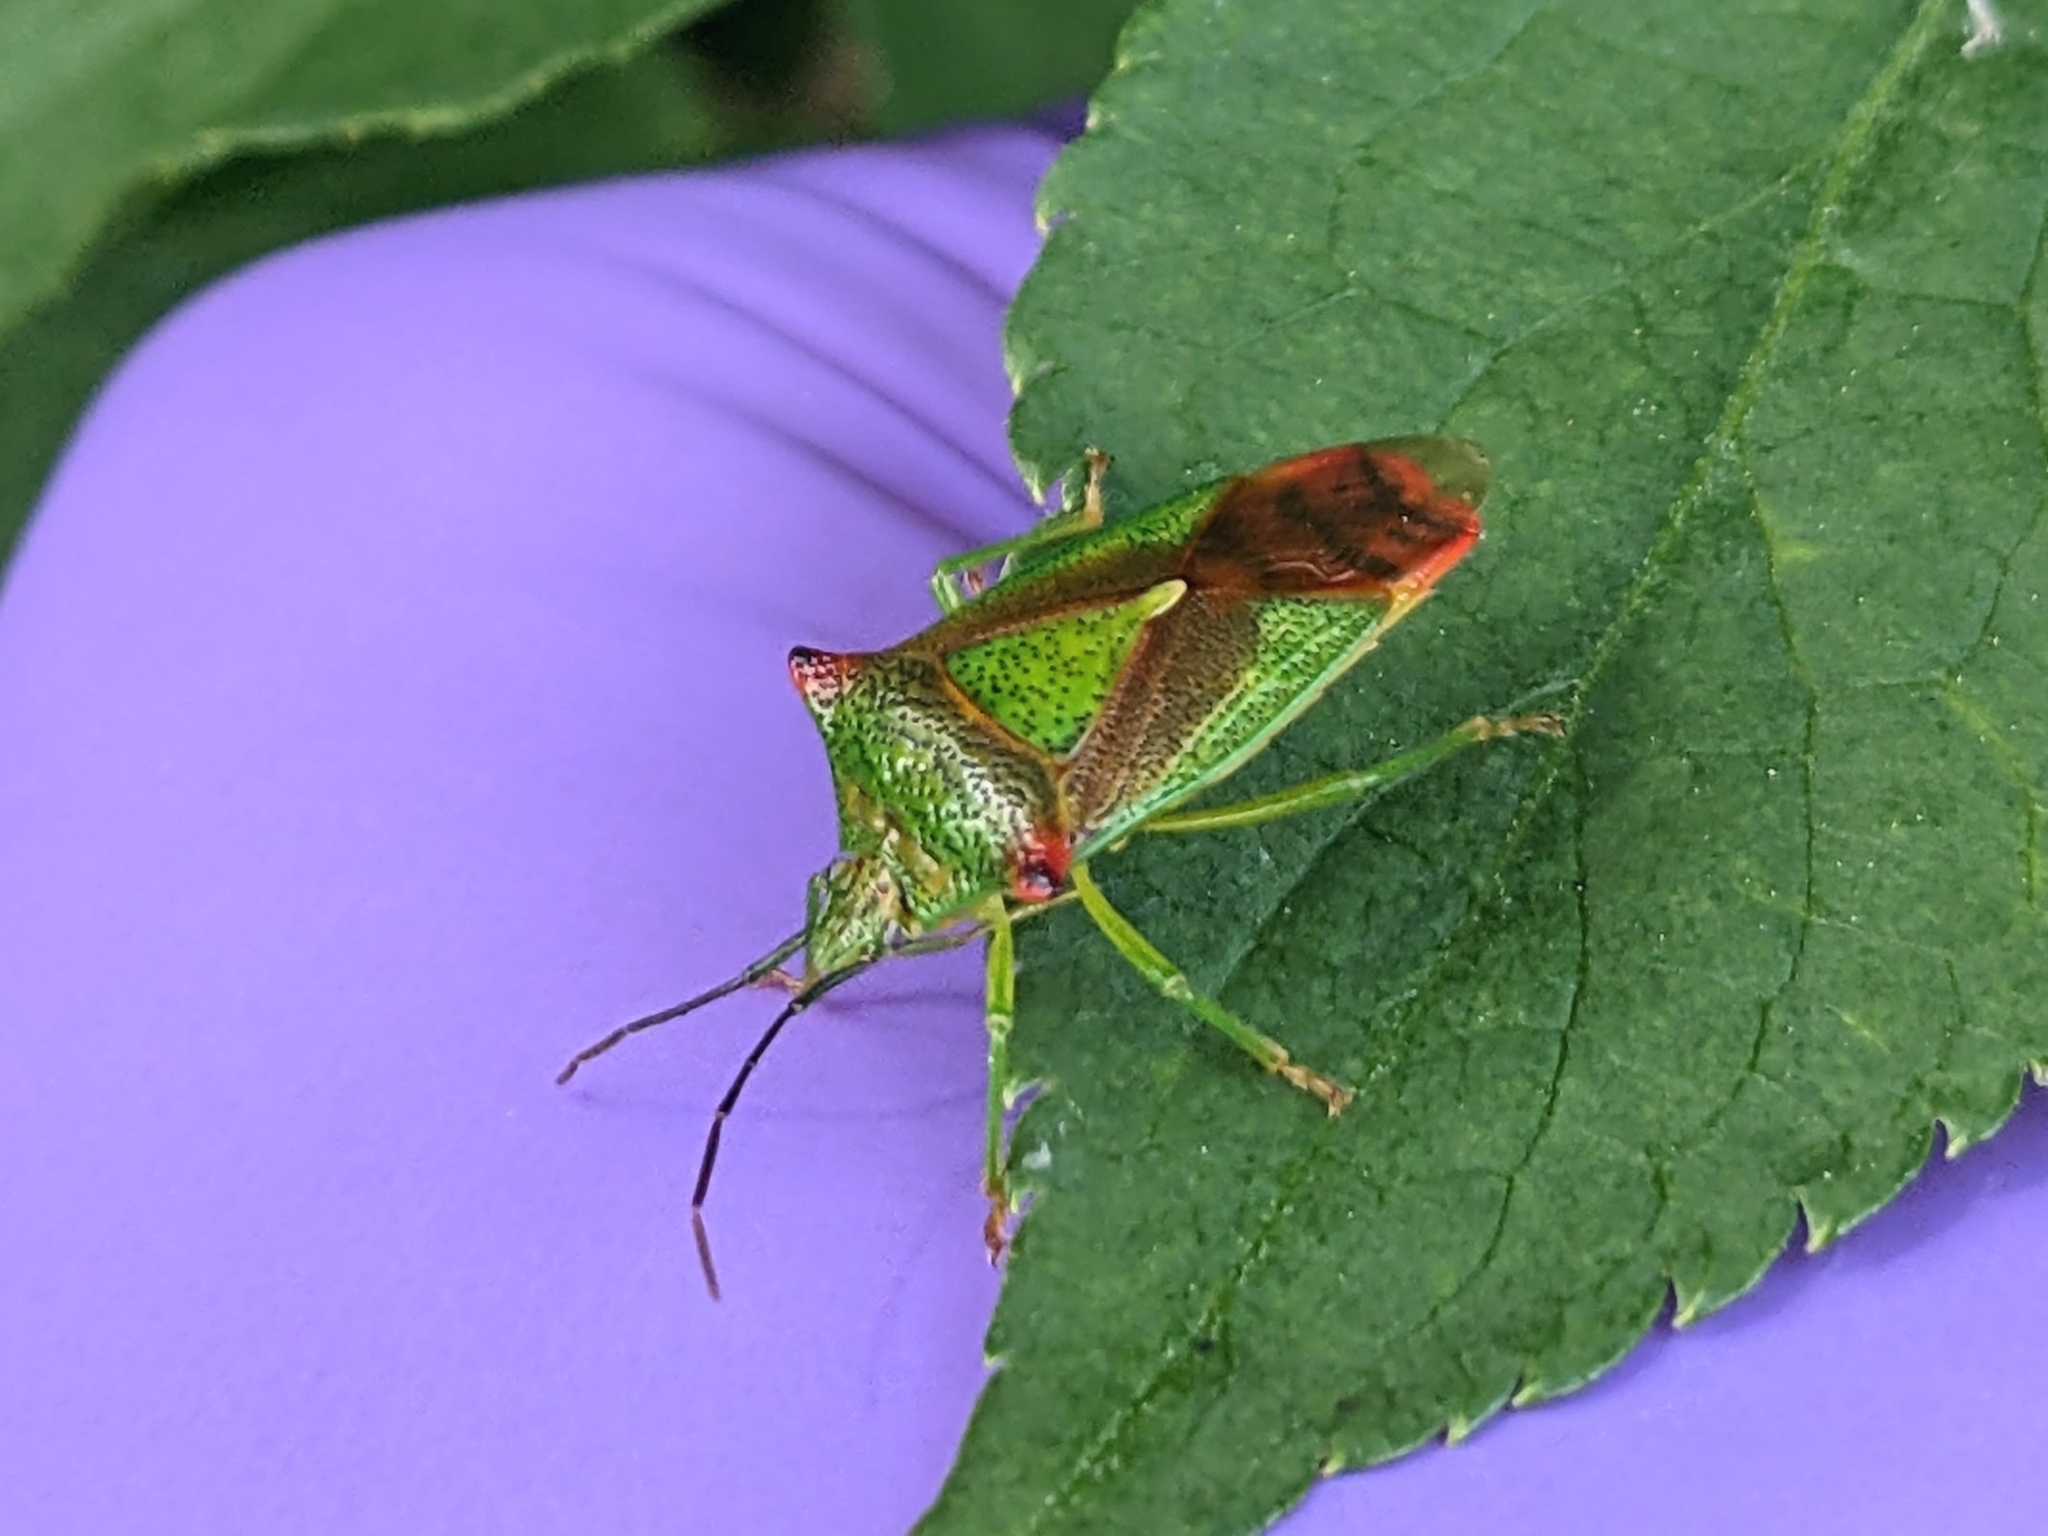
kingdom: Animalia
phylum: Arthropoda
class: Insecta
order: Hemiptera
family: Acanthosomatidae
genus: Acanthosoma
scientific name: Acanthosoma haemorrhoidale
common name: Hawthorn shieldbug
